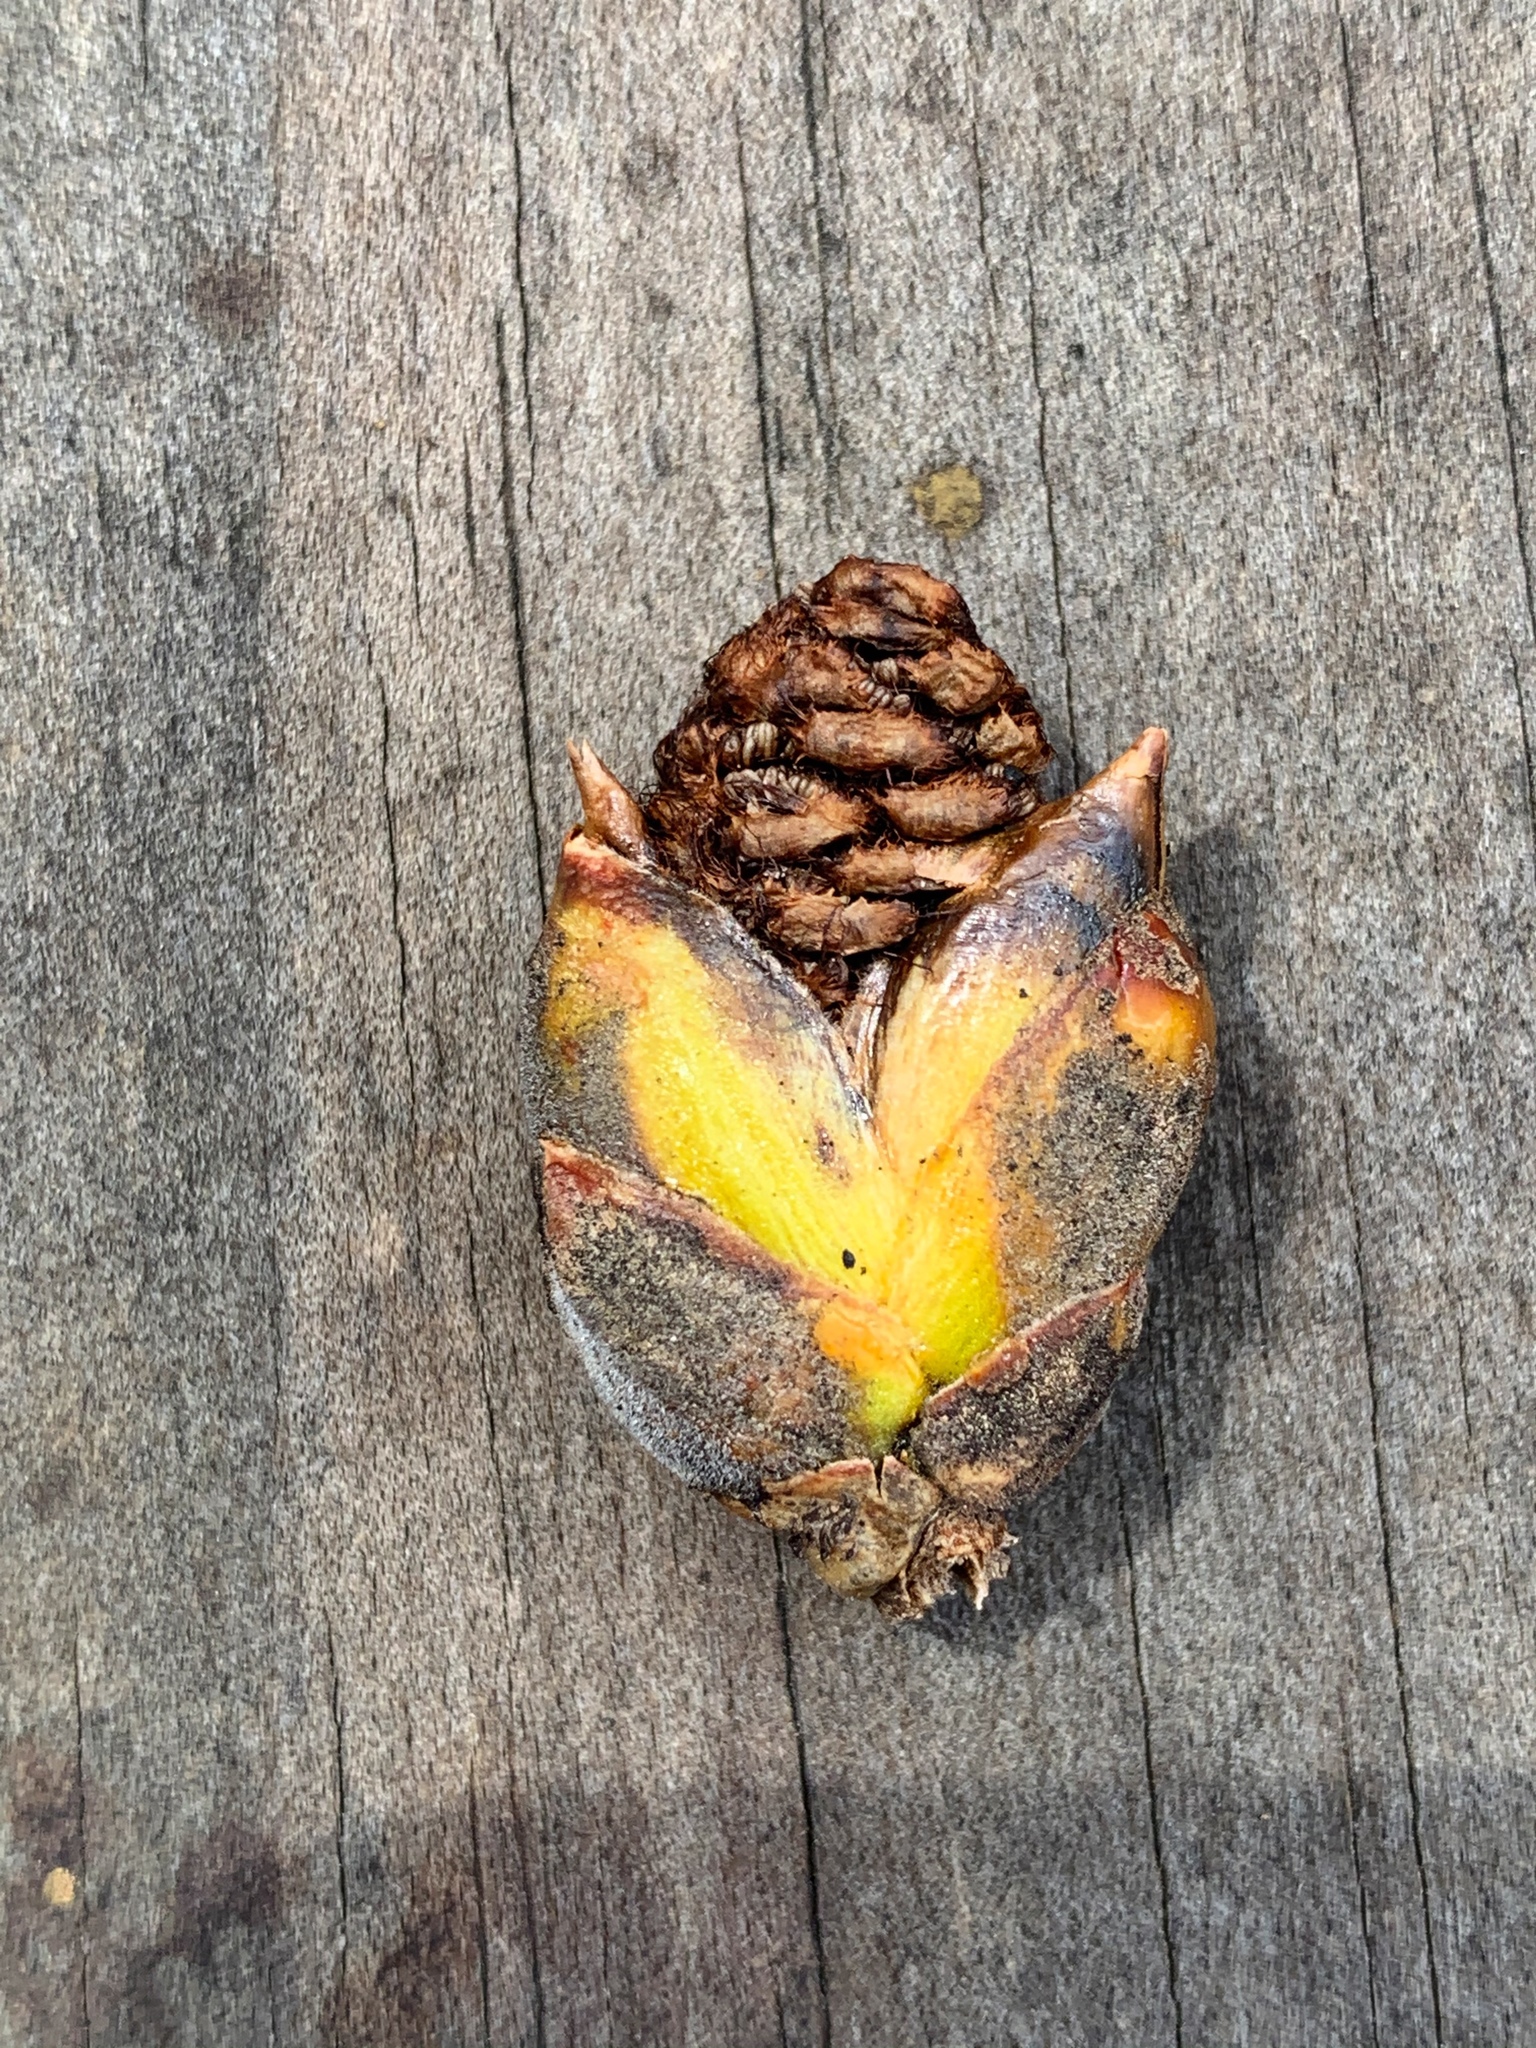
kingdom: Plantae
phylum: Tracheophyta
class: Magnoliopsida
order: Malpighiales
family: Salicaceae
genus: Populus
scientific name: Populus deltoides
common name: Eastern cottonwood
